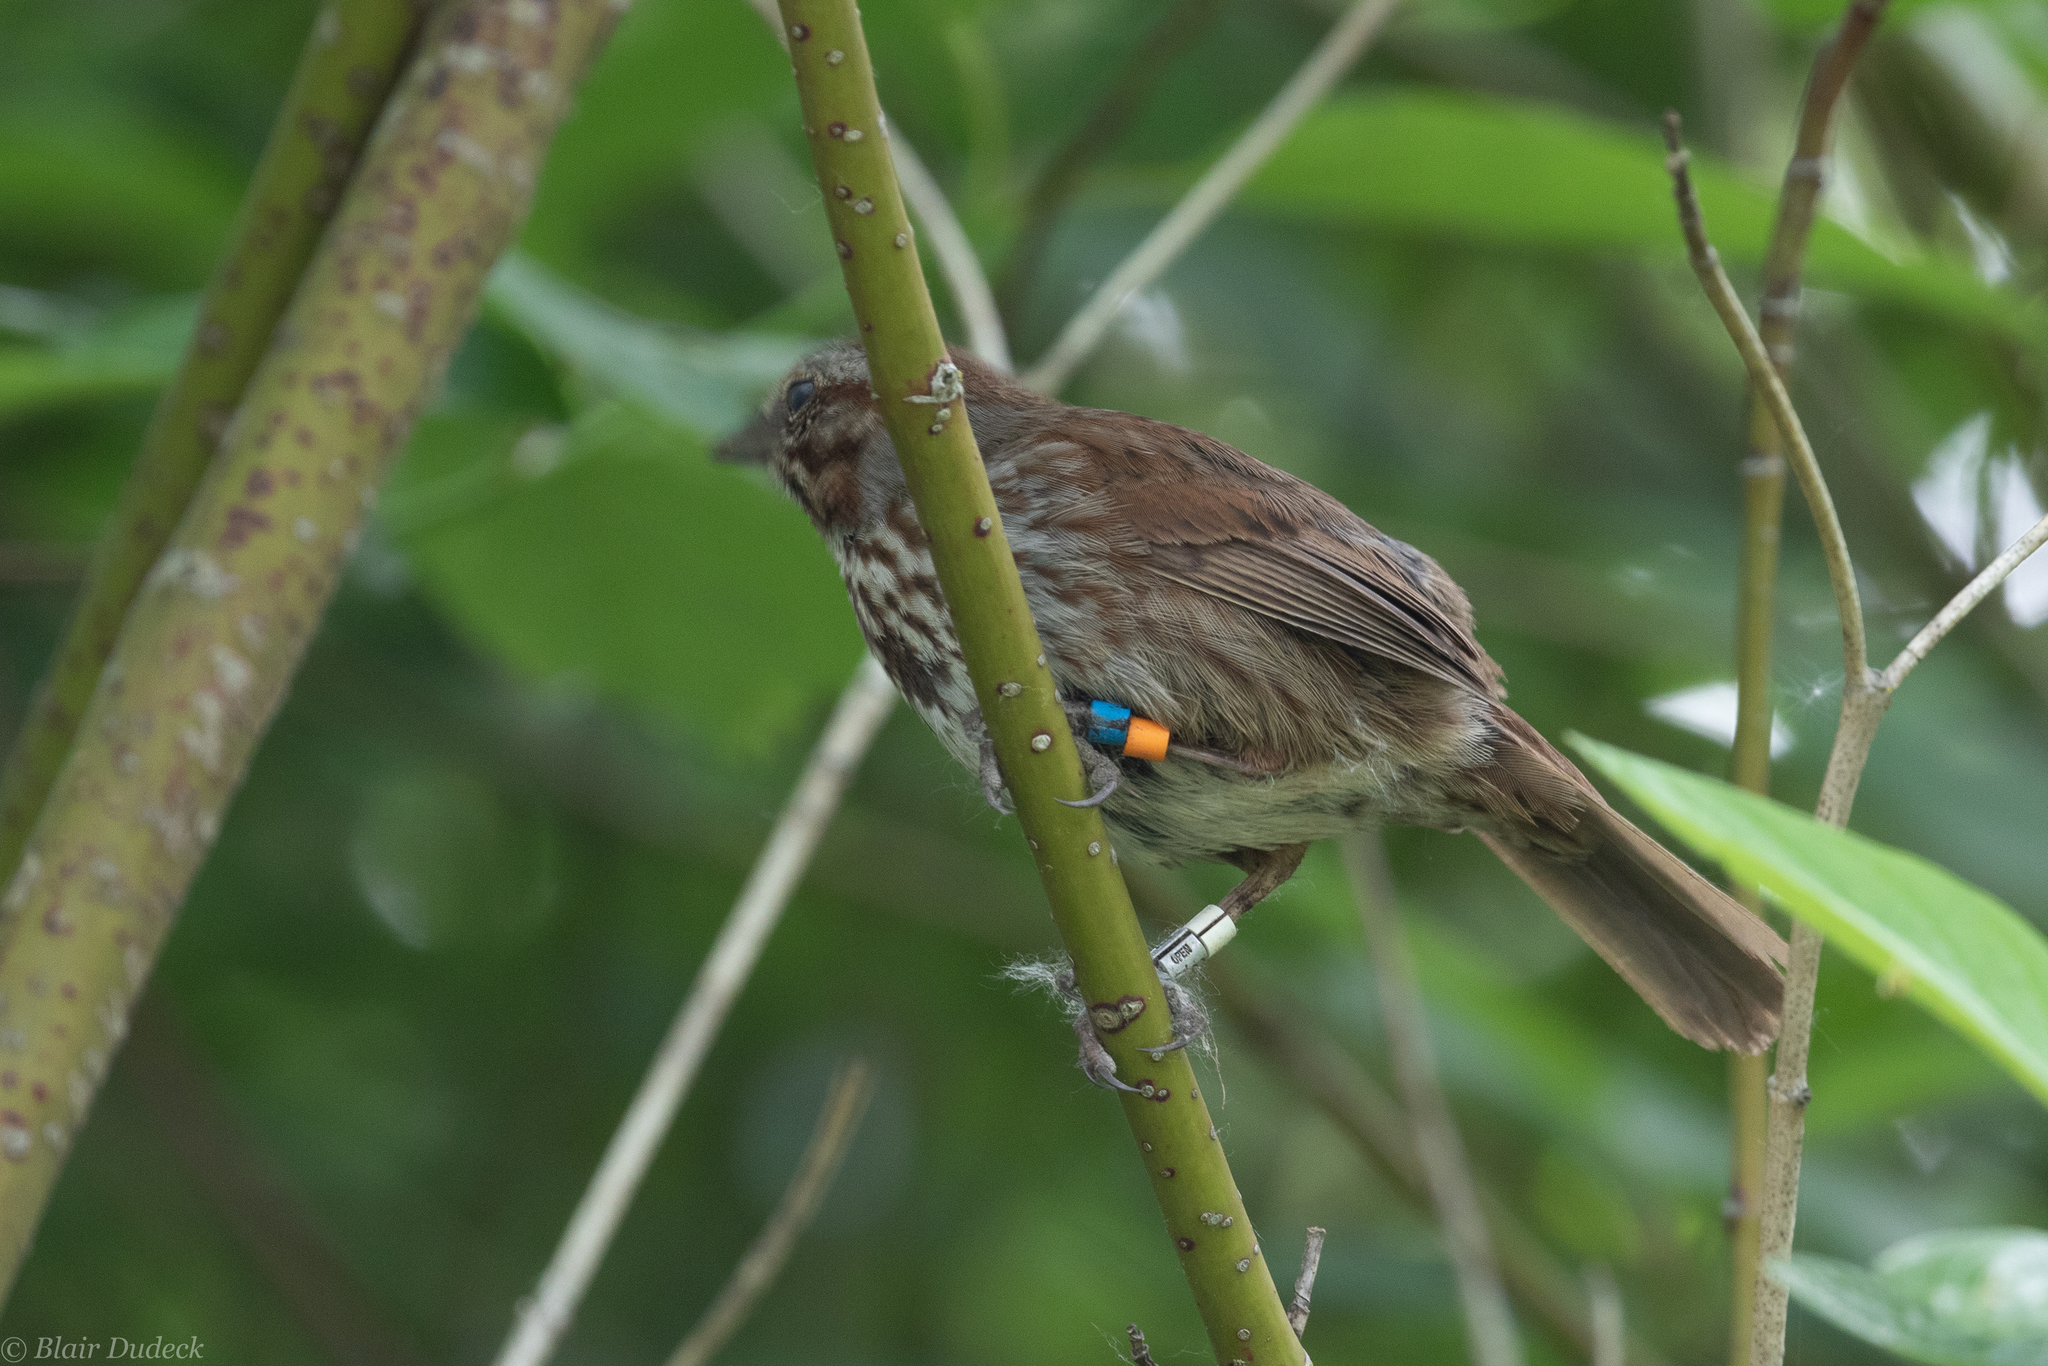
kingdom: Animalia
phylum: Chordata
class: Aves
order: Passeriformes
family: Passerellidae
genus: Melospiza
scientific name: Melospiza melodia
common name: Song sparrow
